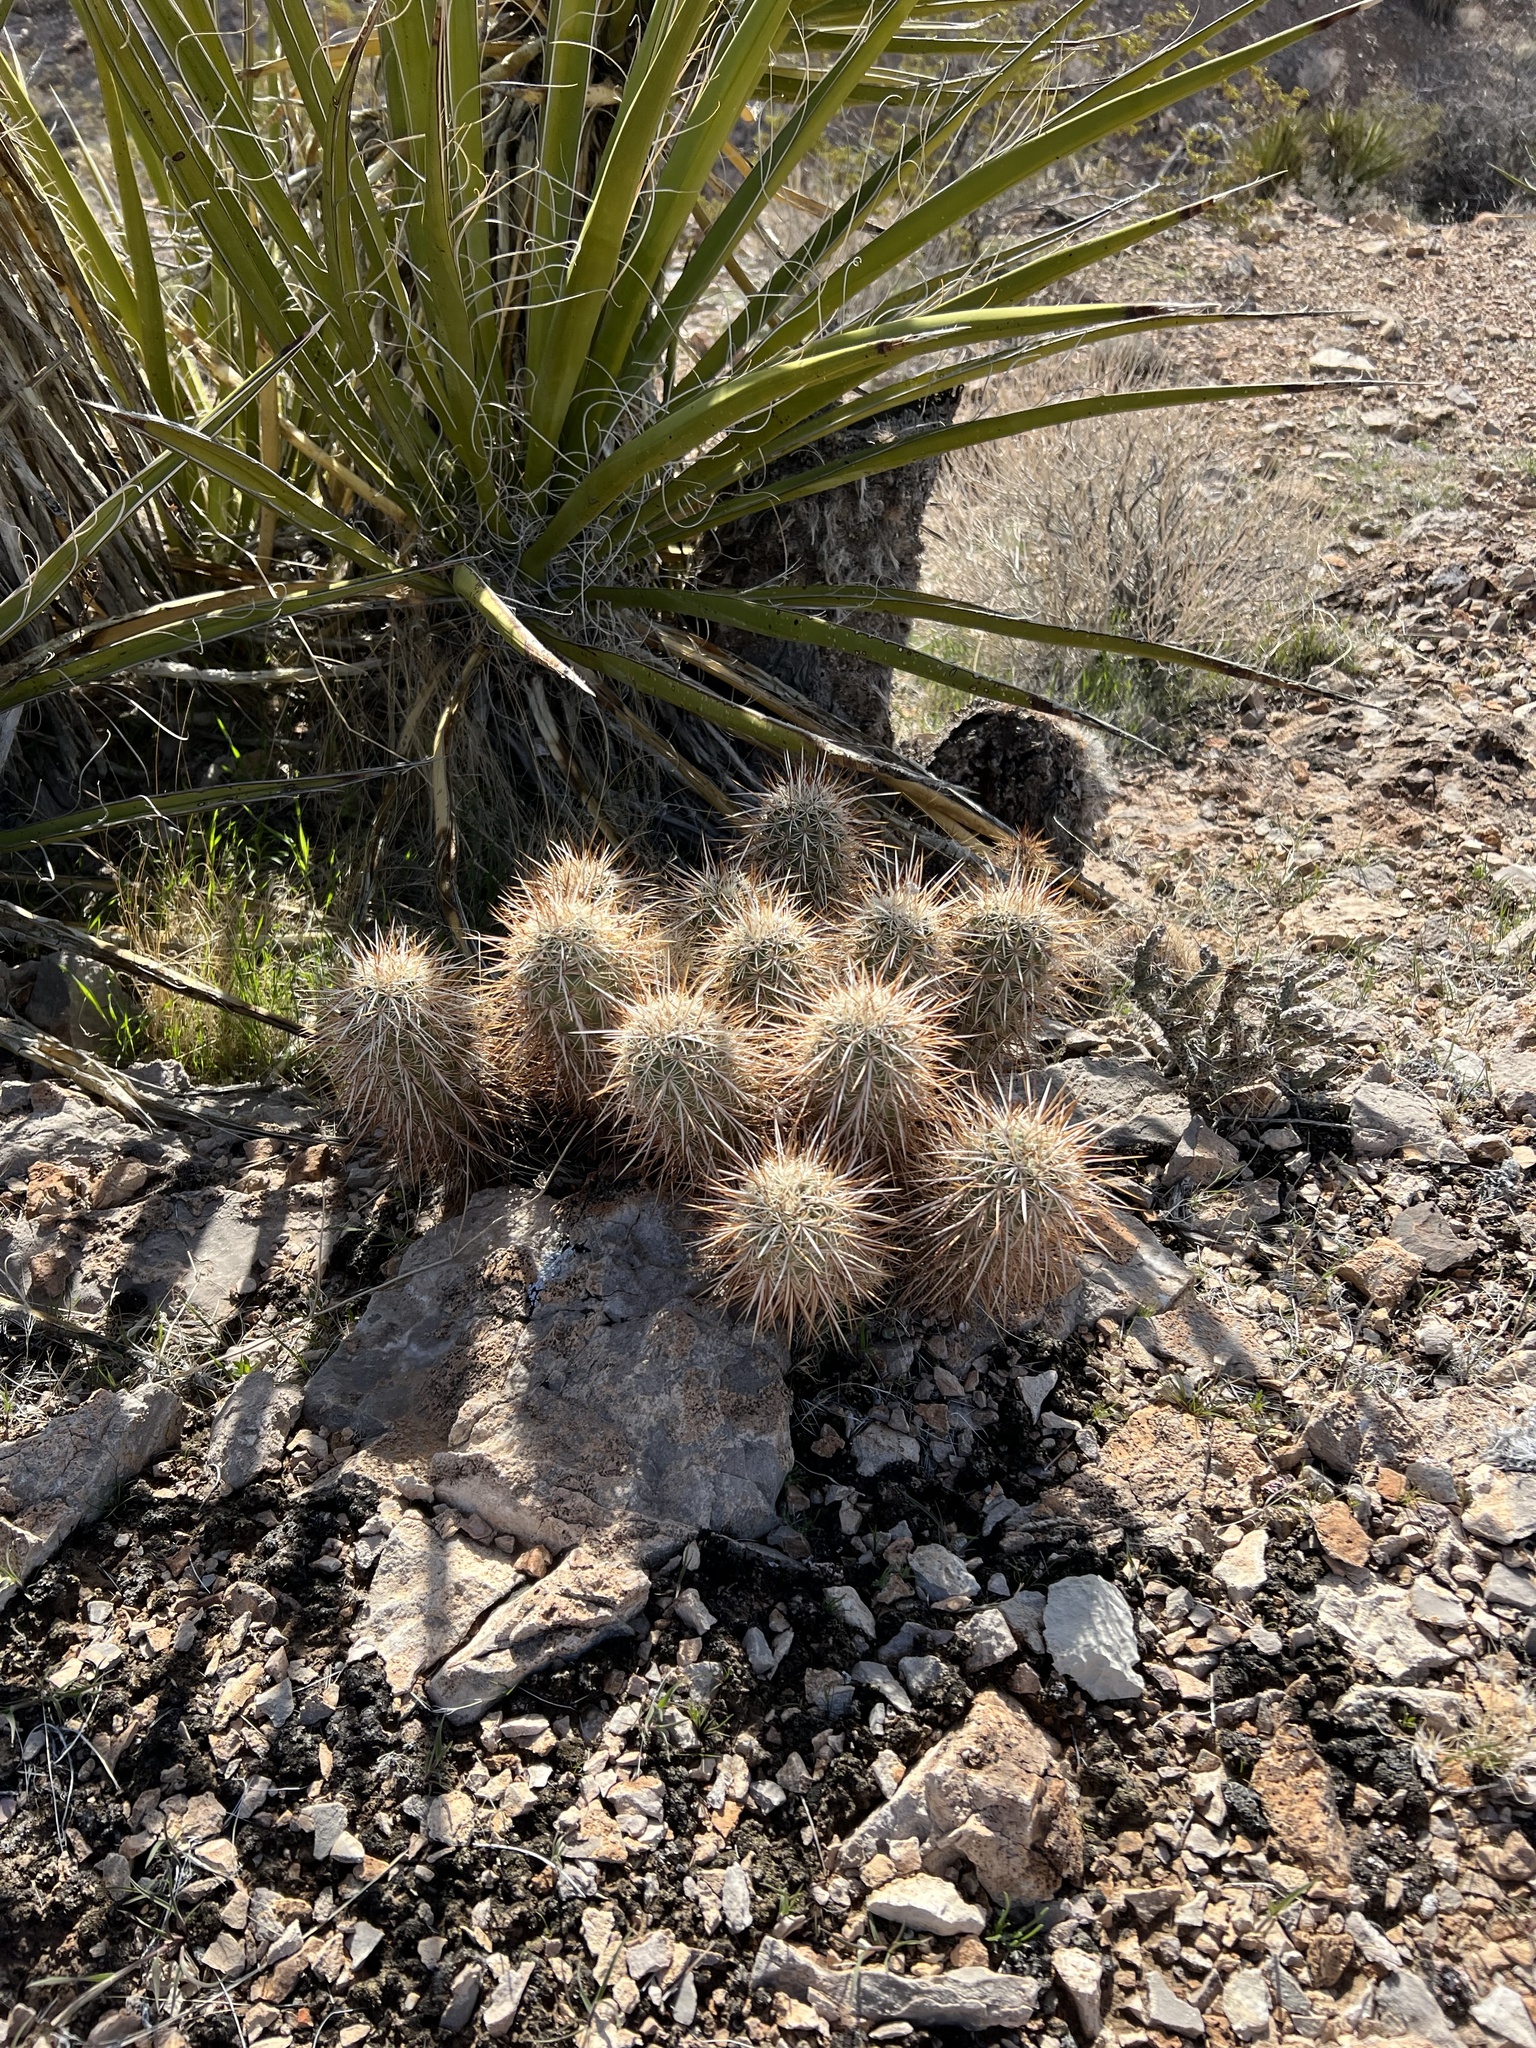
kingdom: Plantae
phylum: Tracheophyta
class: Magnoliopsida
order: Caryophyllales
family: Cactaceae
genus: Echinocereus
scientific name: Echinocereus engelmannii
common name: Engelmann's hedgehog cactus
